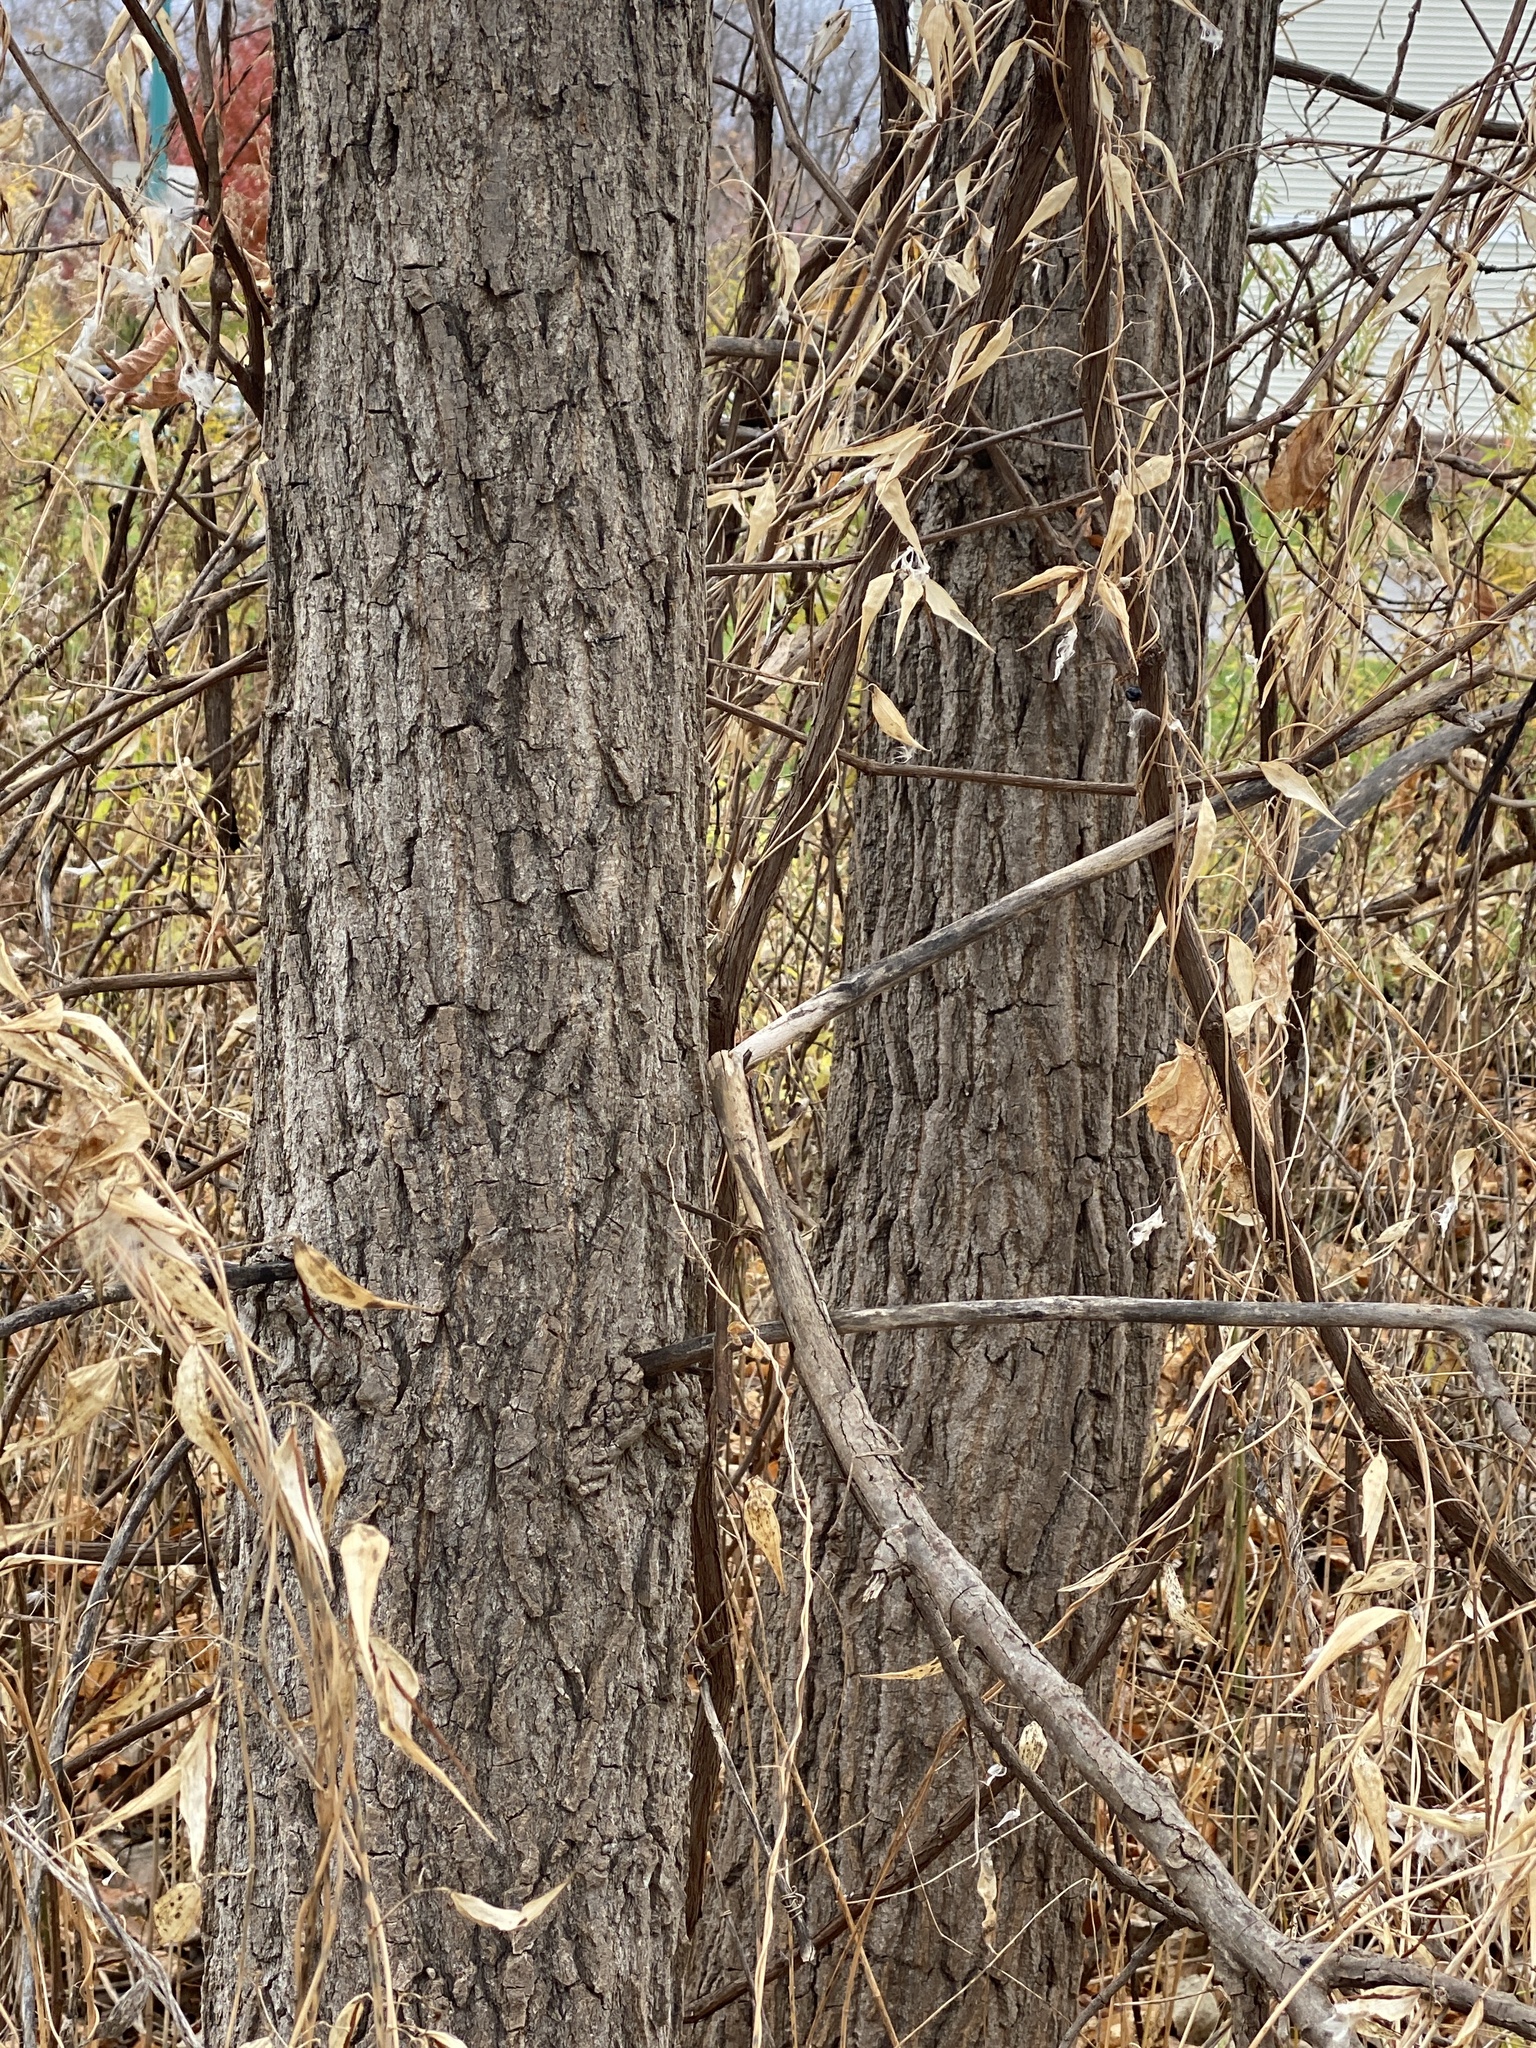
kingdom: Plantae
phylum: Tracheophyta
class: Magnoliopsida
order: Malpighiales
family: Salicaceae
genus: Populus
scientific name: Populus deltoides
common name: Eastern cottonwood
